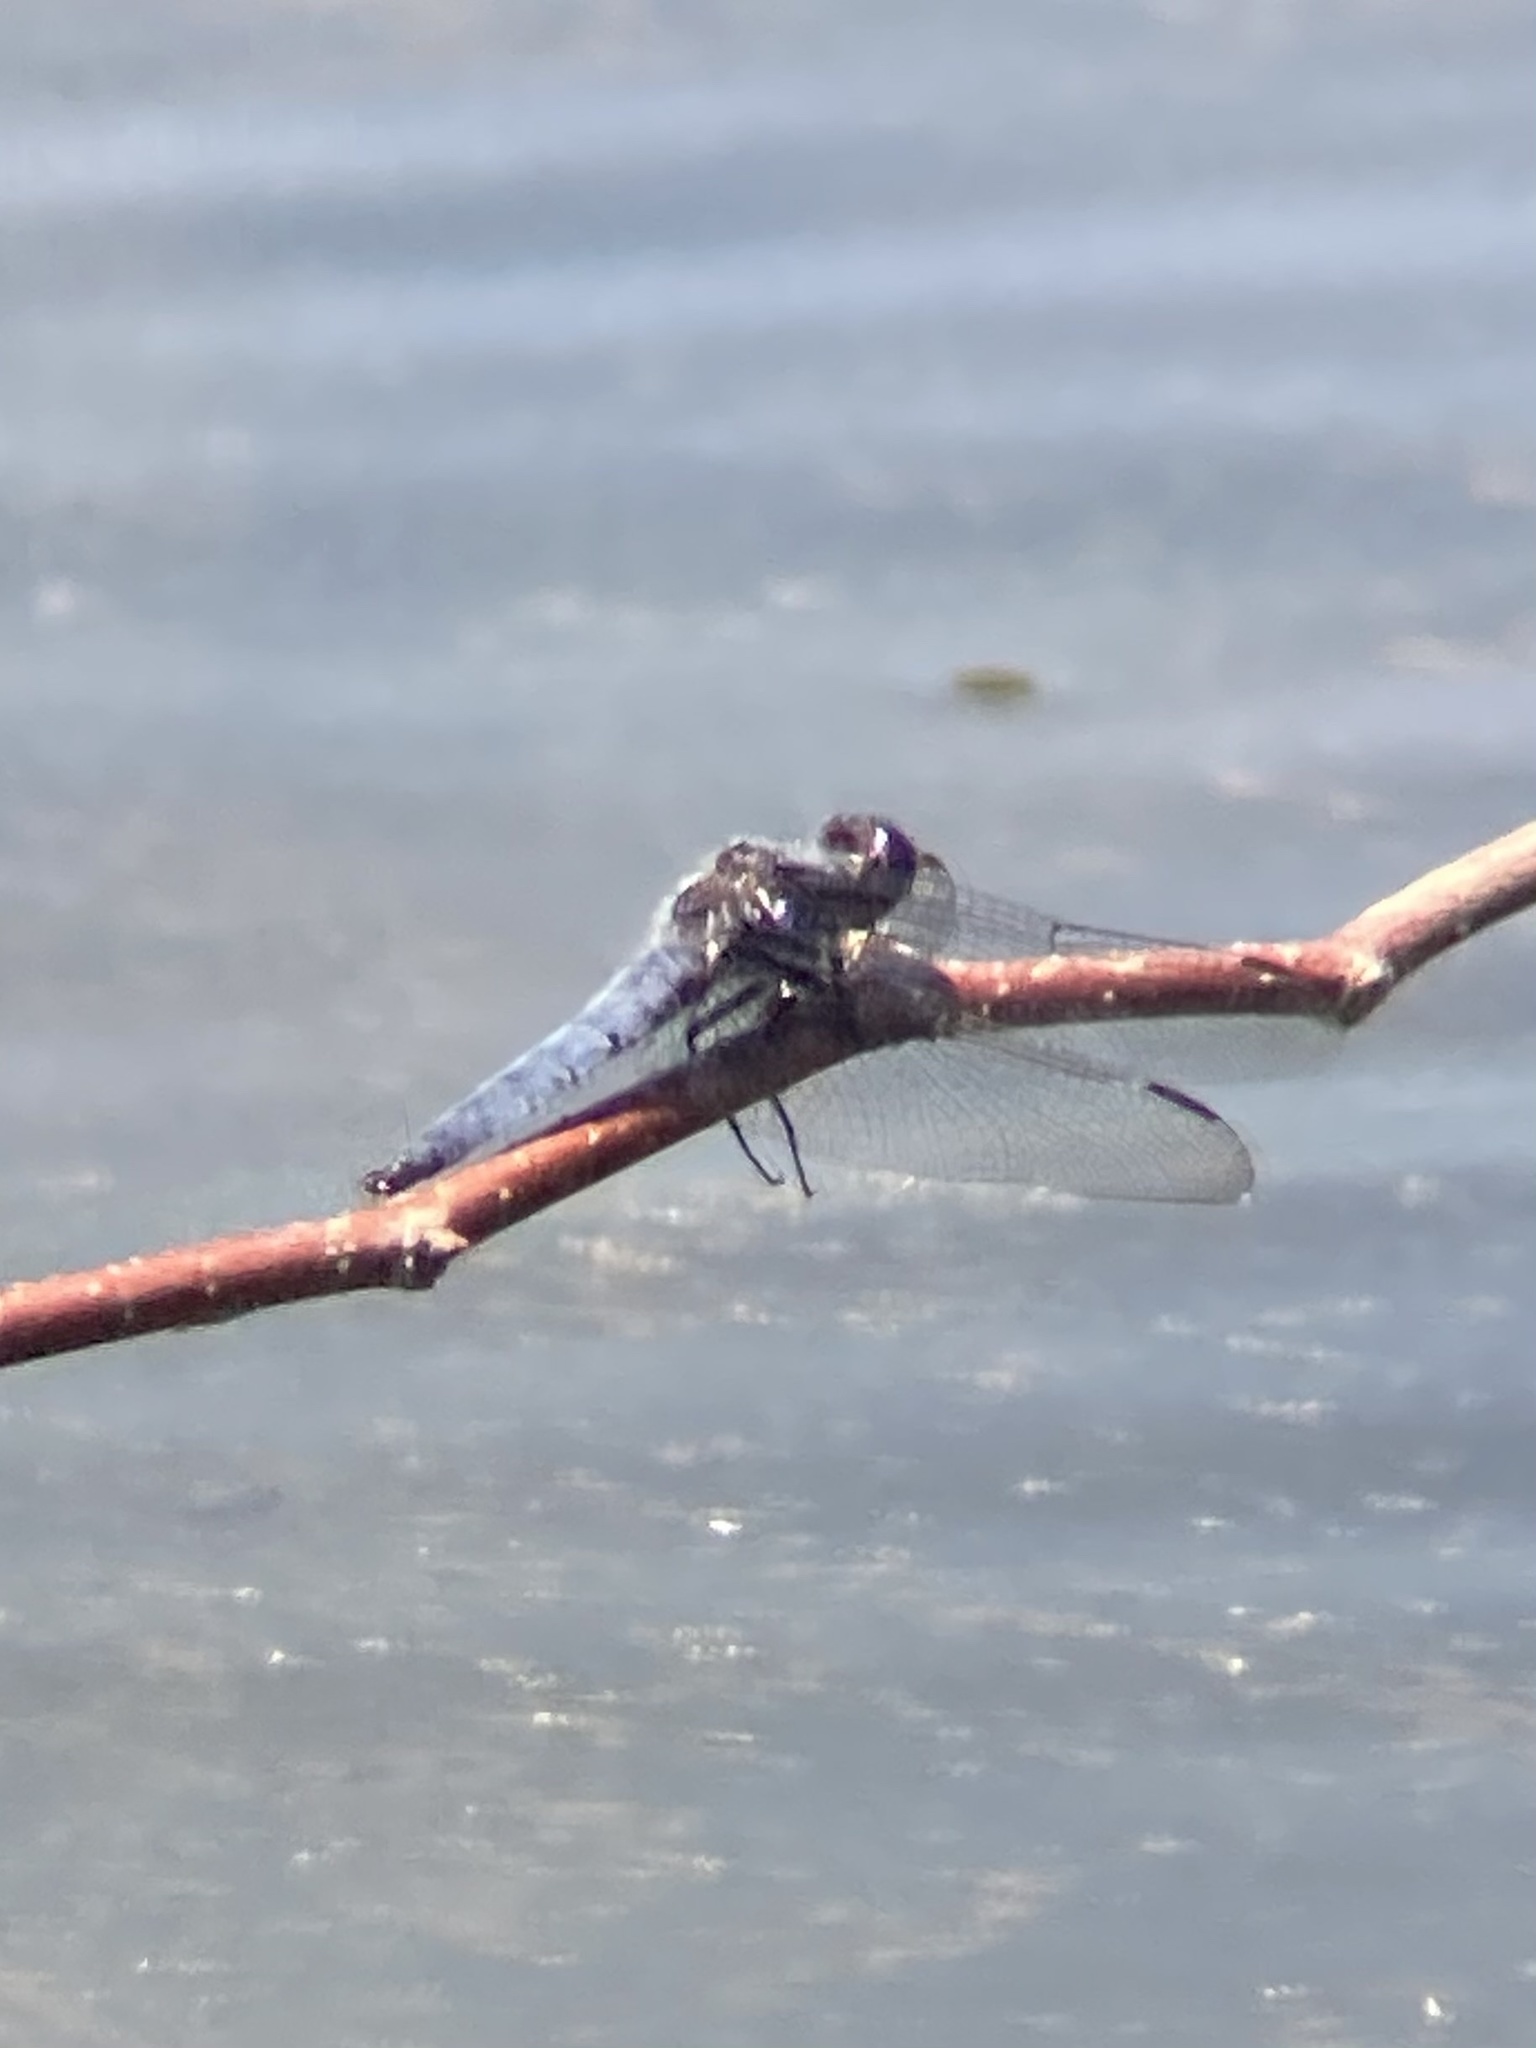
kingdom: Animalia
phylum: Arthropoda
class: Insecta
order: Odonata
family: Libellulidae
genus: Ladona
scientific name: Ladona deplanata
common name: Blue corporal
